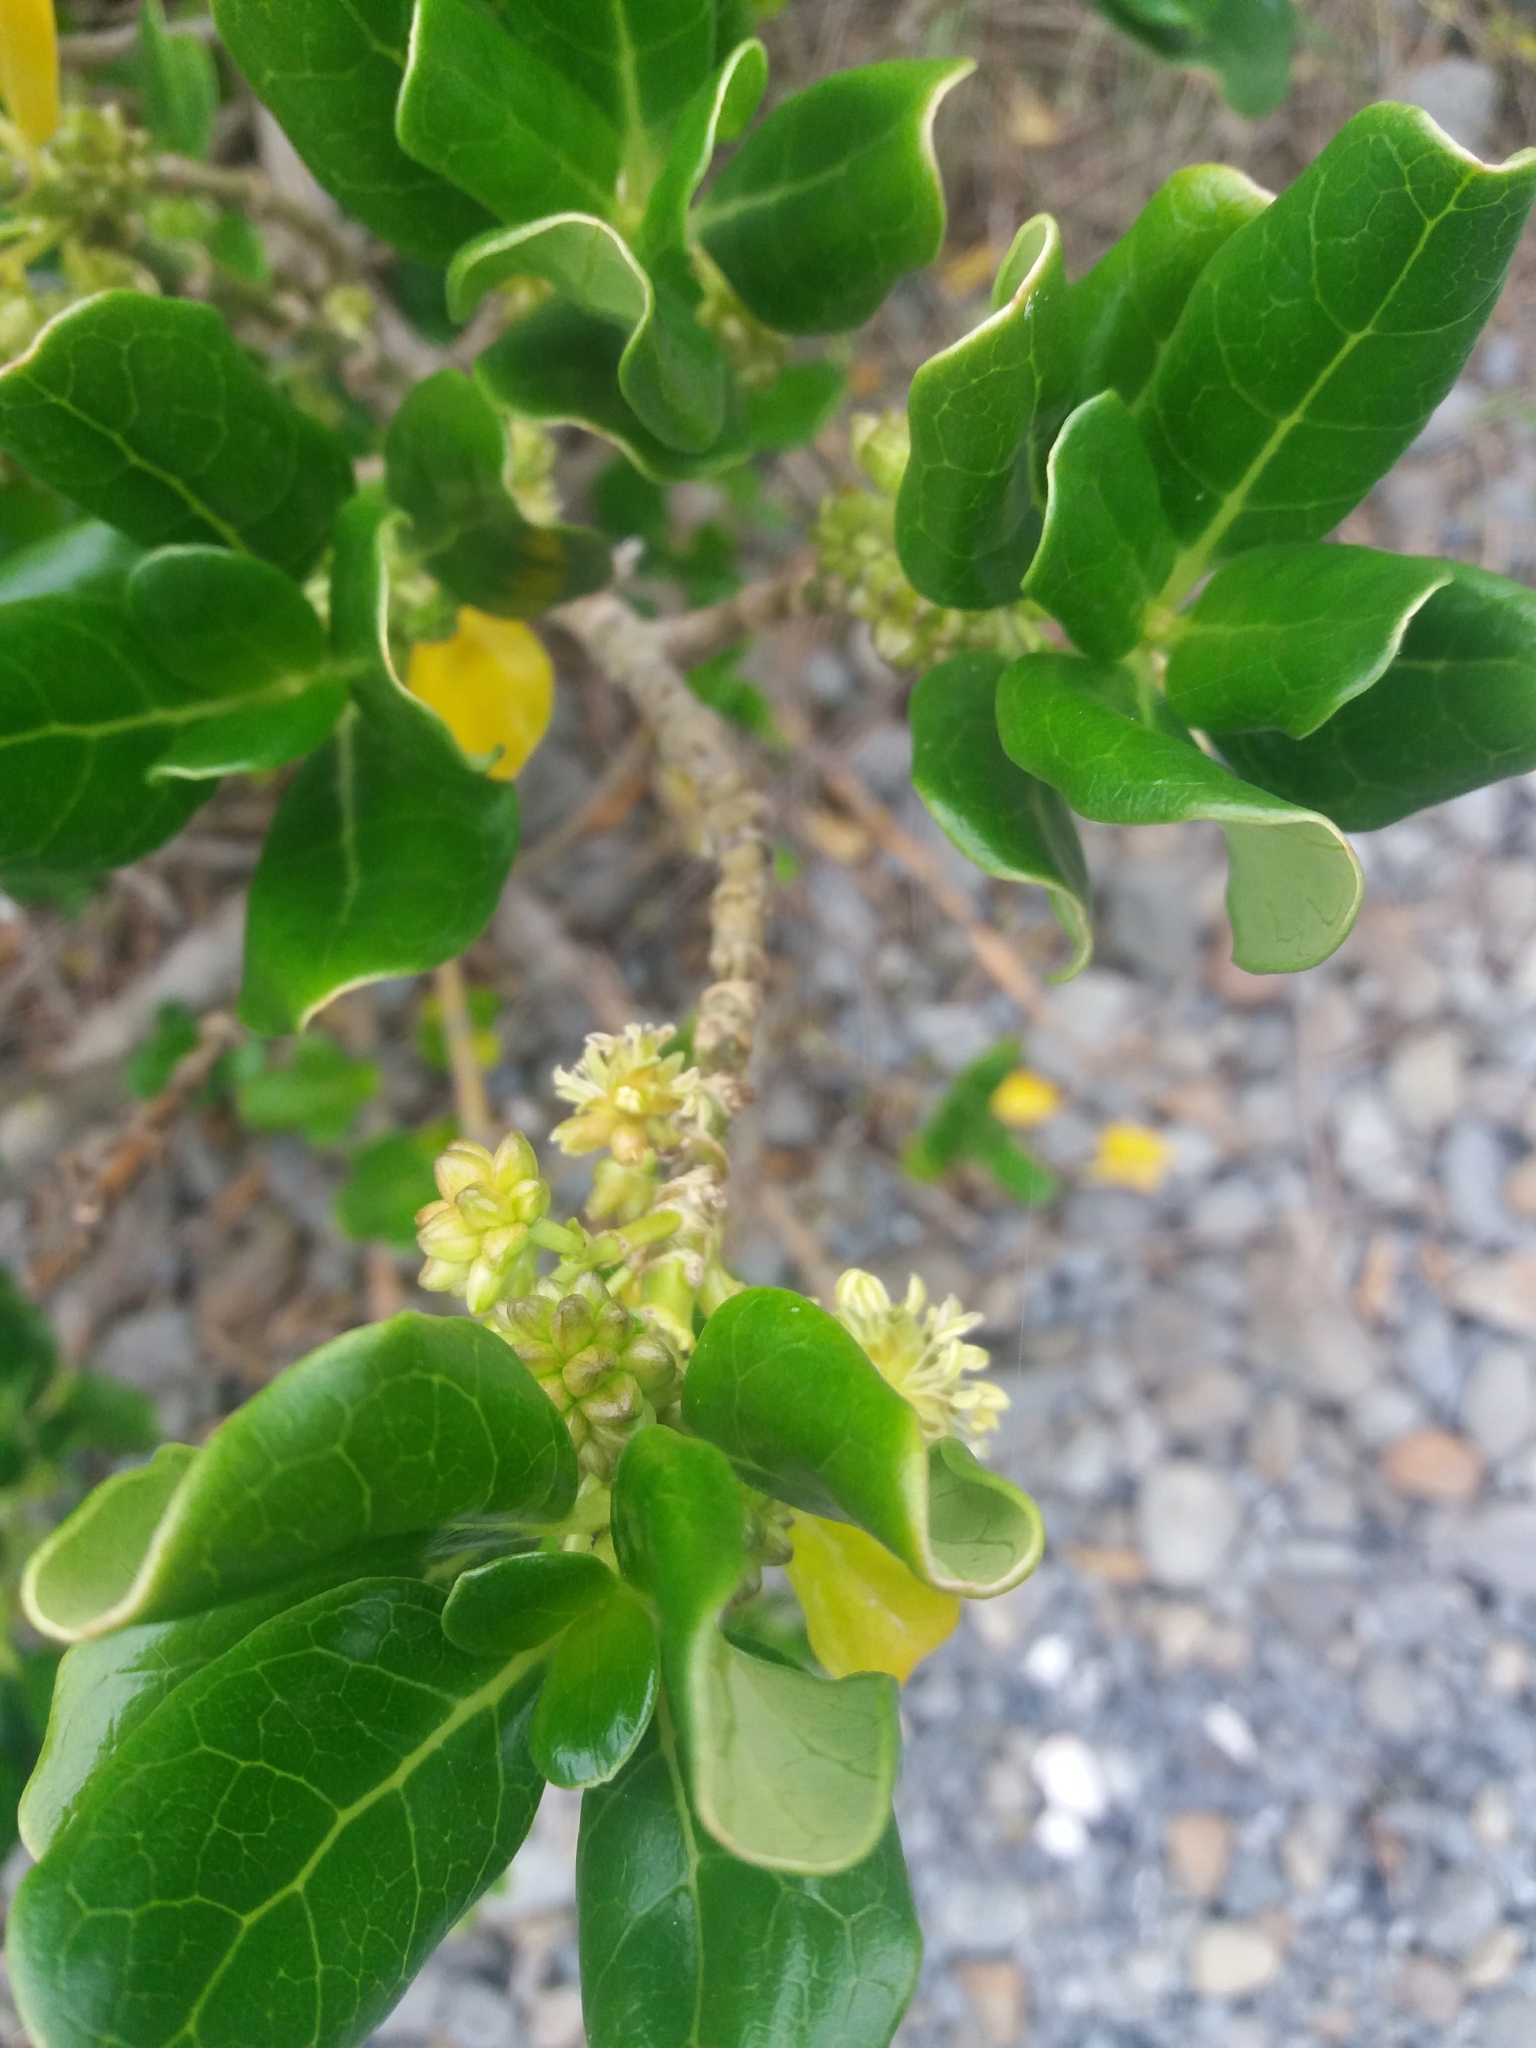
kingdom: Plantae
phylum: Tracheophyta
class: Magnoliopsida
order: Gentianales
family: Rubiaceae
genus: Coprosma
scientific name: Coprosma repens
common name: Tree bedstraw
